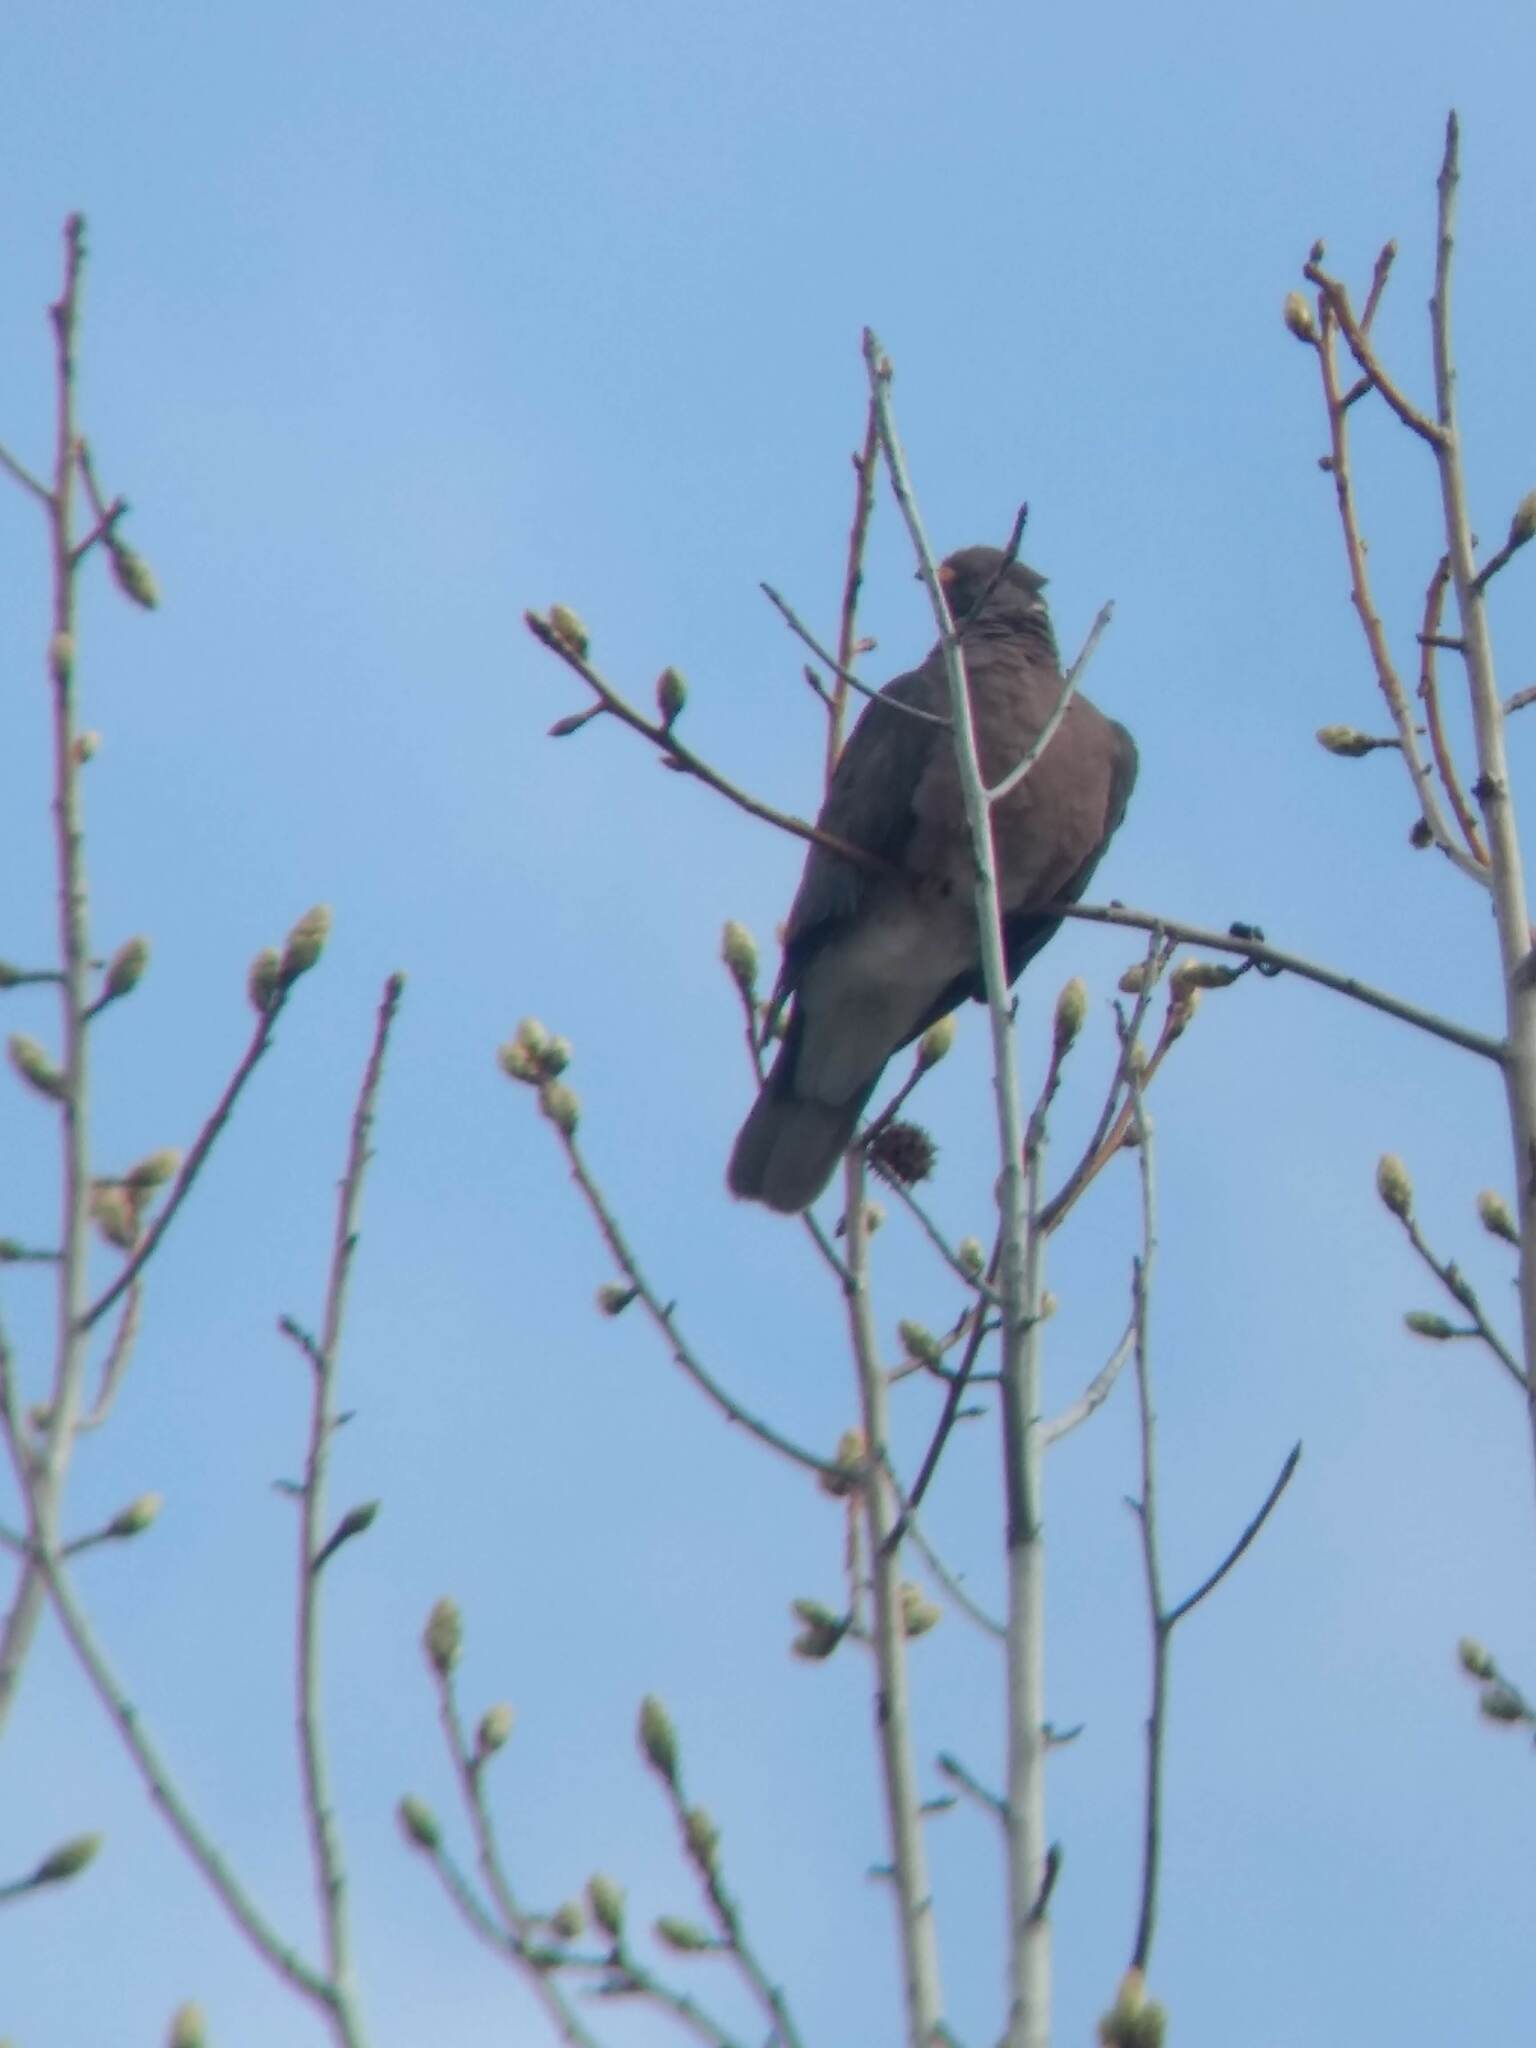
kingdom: Animalia
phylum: Chordata
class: Aves
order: Columbiformes
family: Columbidae
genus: Patagioenas
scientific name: Patagioenas fasciata
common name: Band-tailed pigeon
